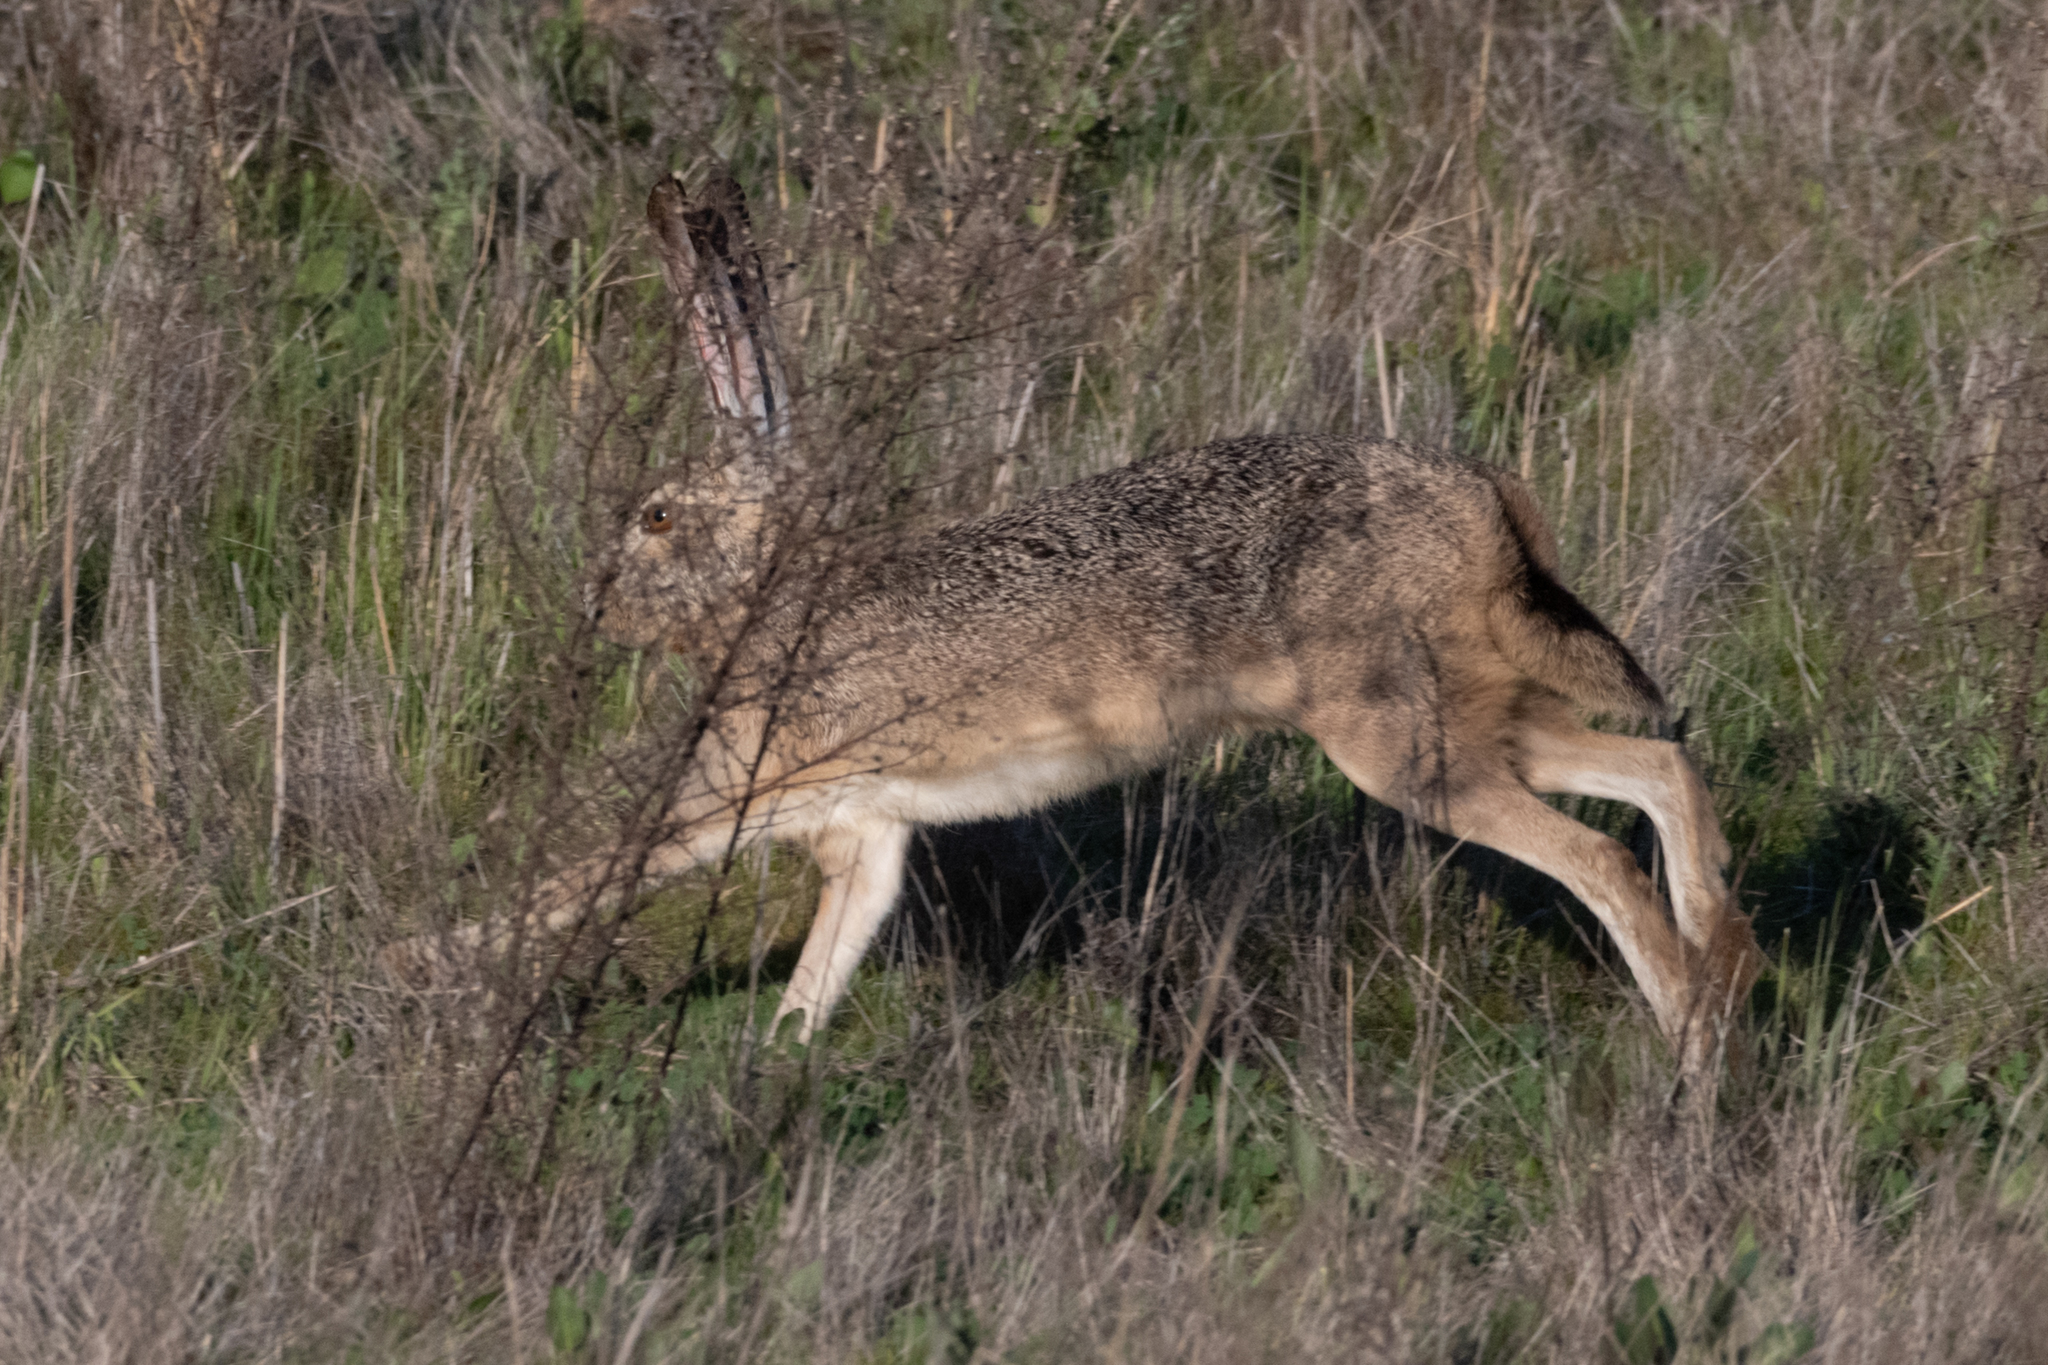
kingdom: Animalia
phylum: Chordata
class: Mammalia
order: Lagomorpha
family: Leporidae
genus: Lepus
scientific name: Lepus californicus
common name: Black-tailed jackrabbit
